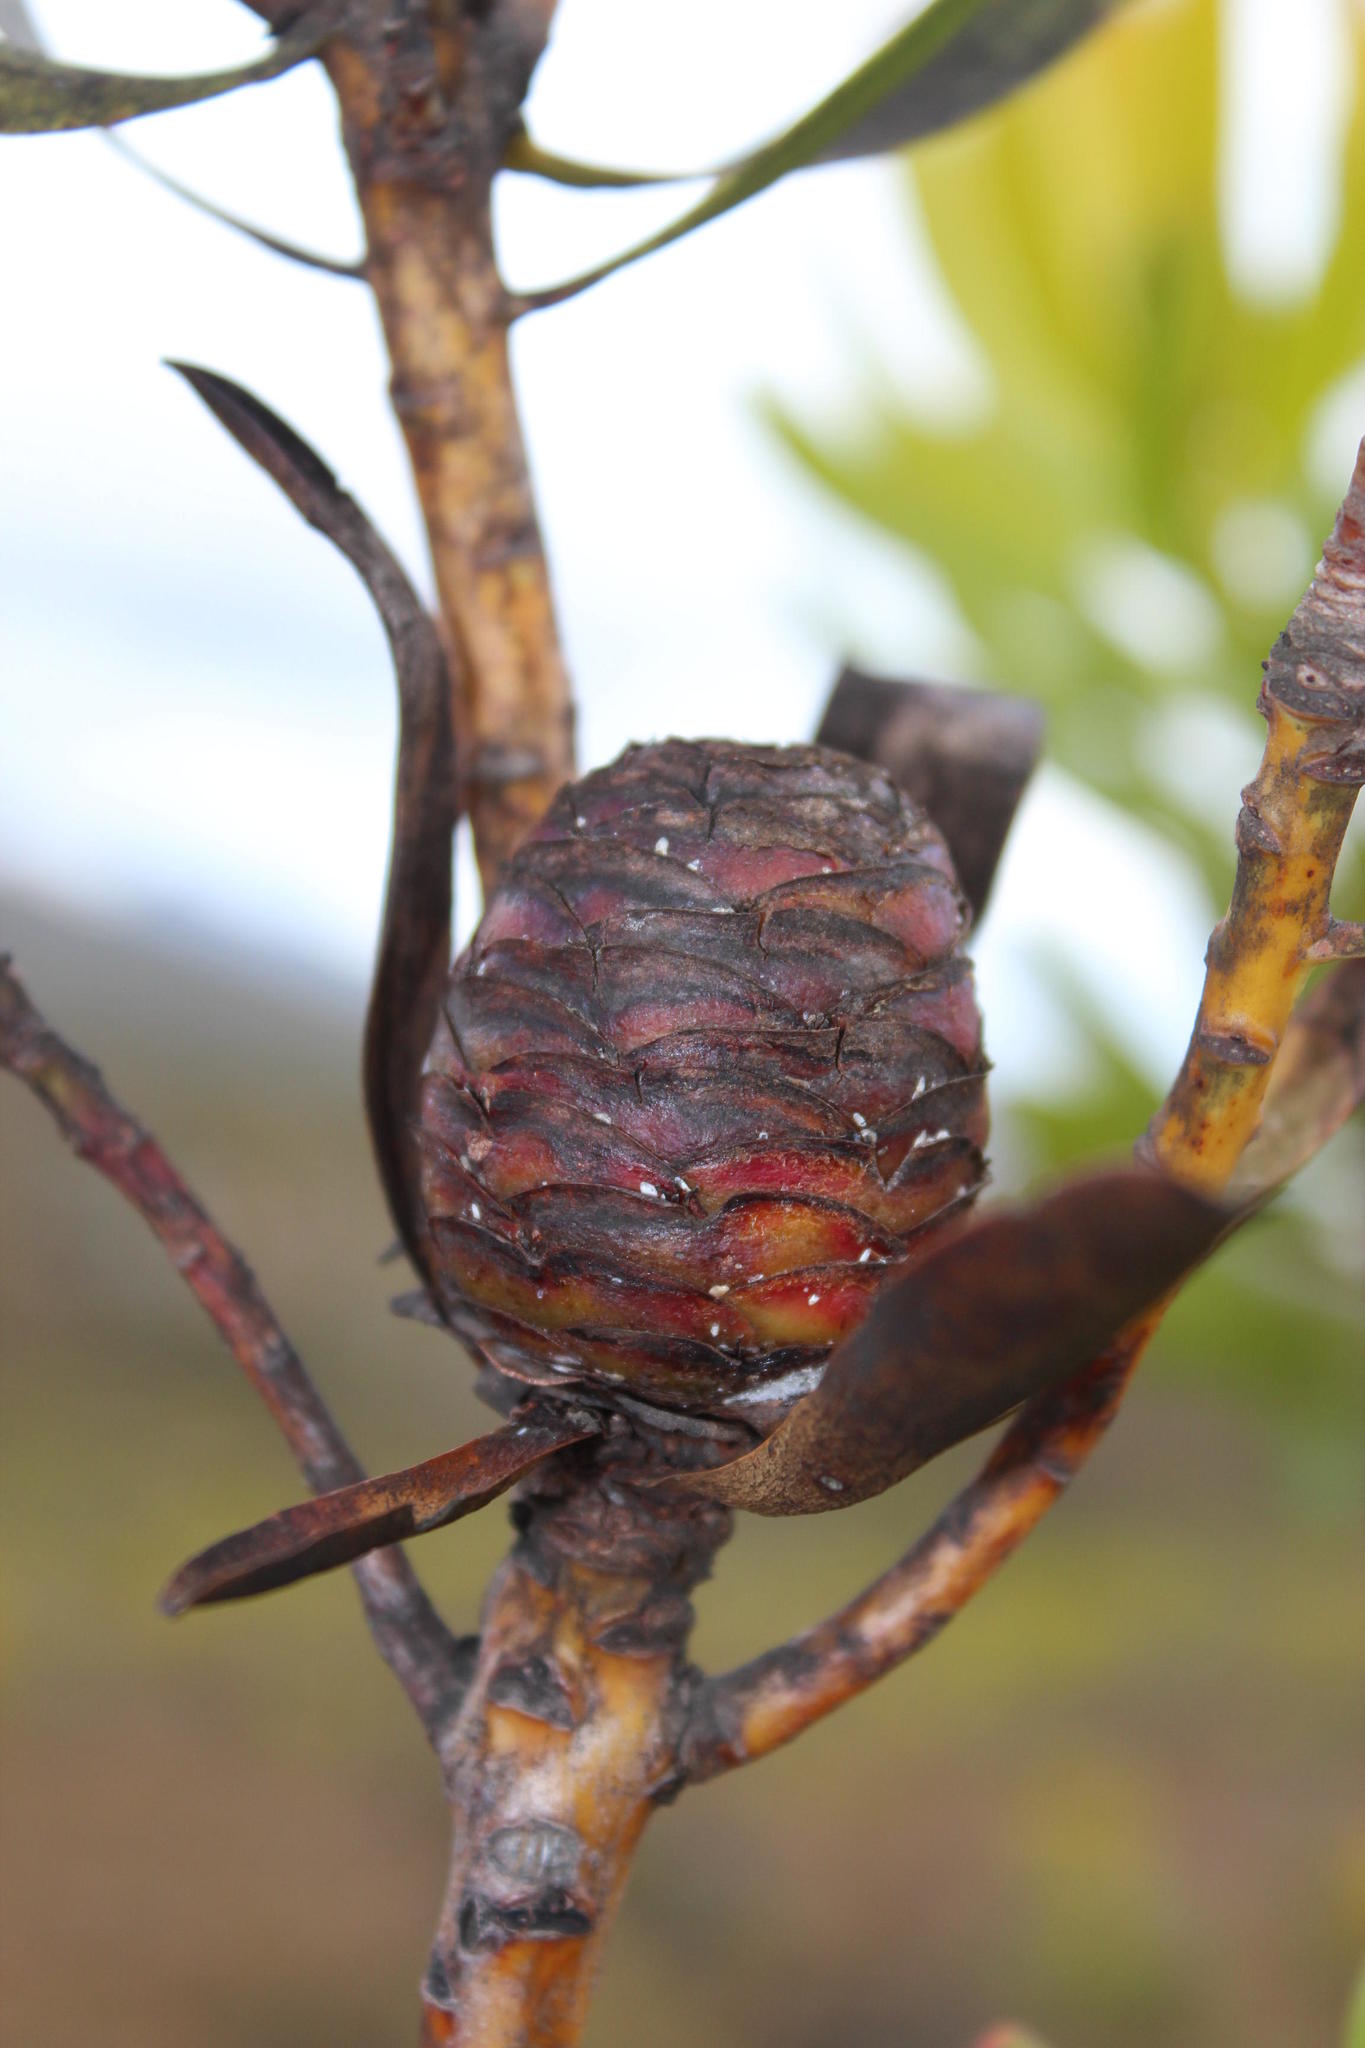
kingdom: Plantae
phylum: Tracheophyta
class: Magnoliopsida
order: Proteales
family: Proteaceae
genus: Leucadendron
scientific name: Leucadendron microcephalum
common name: Oilbract conebush
